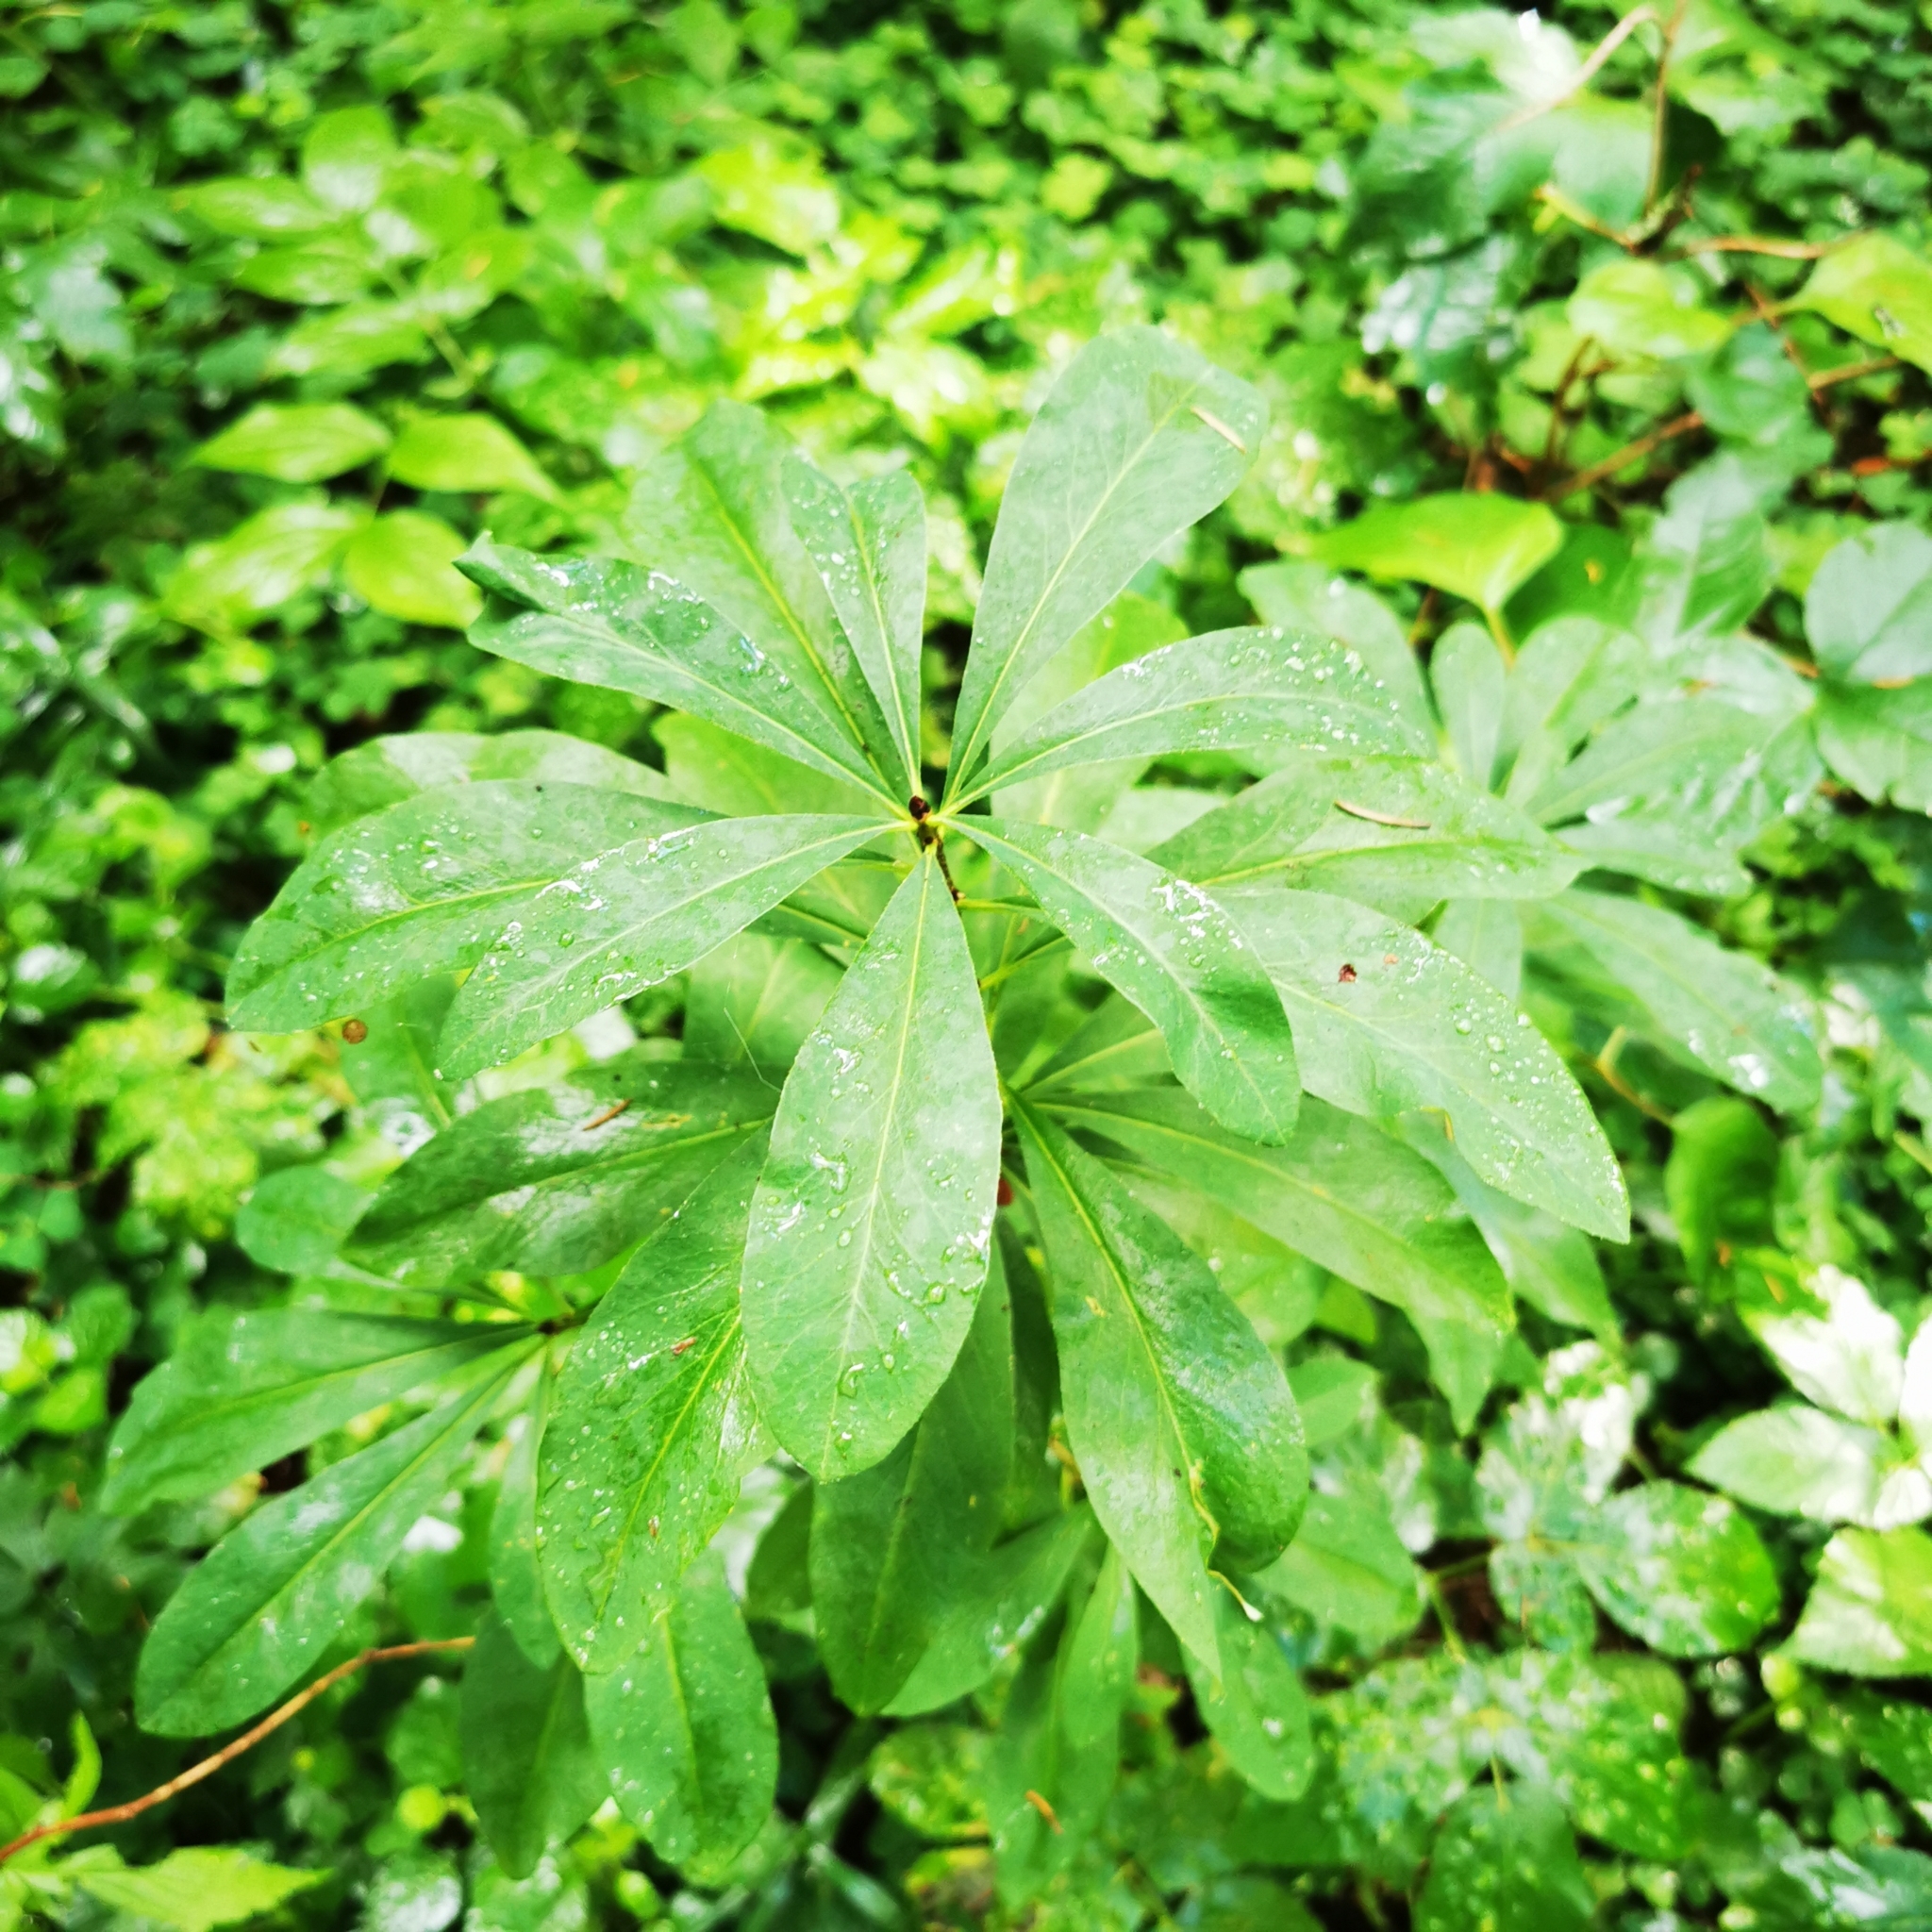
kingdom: Plantae
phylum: Tracheophyta
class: Magnoliopsida
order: Malvales
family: Thymelaeaceae
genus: Daphne
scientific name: Daphne mezereum
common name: Mezereon
